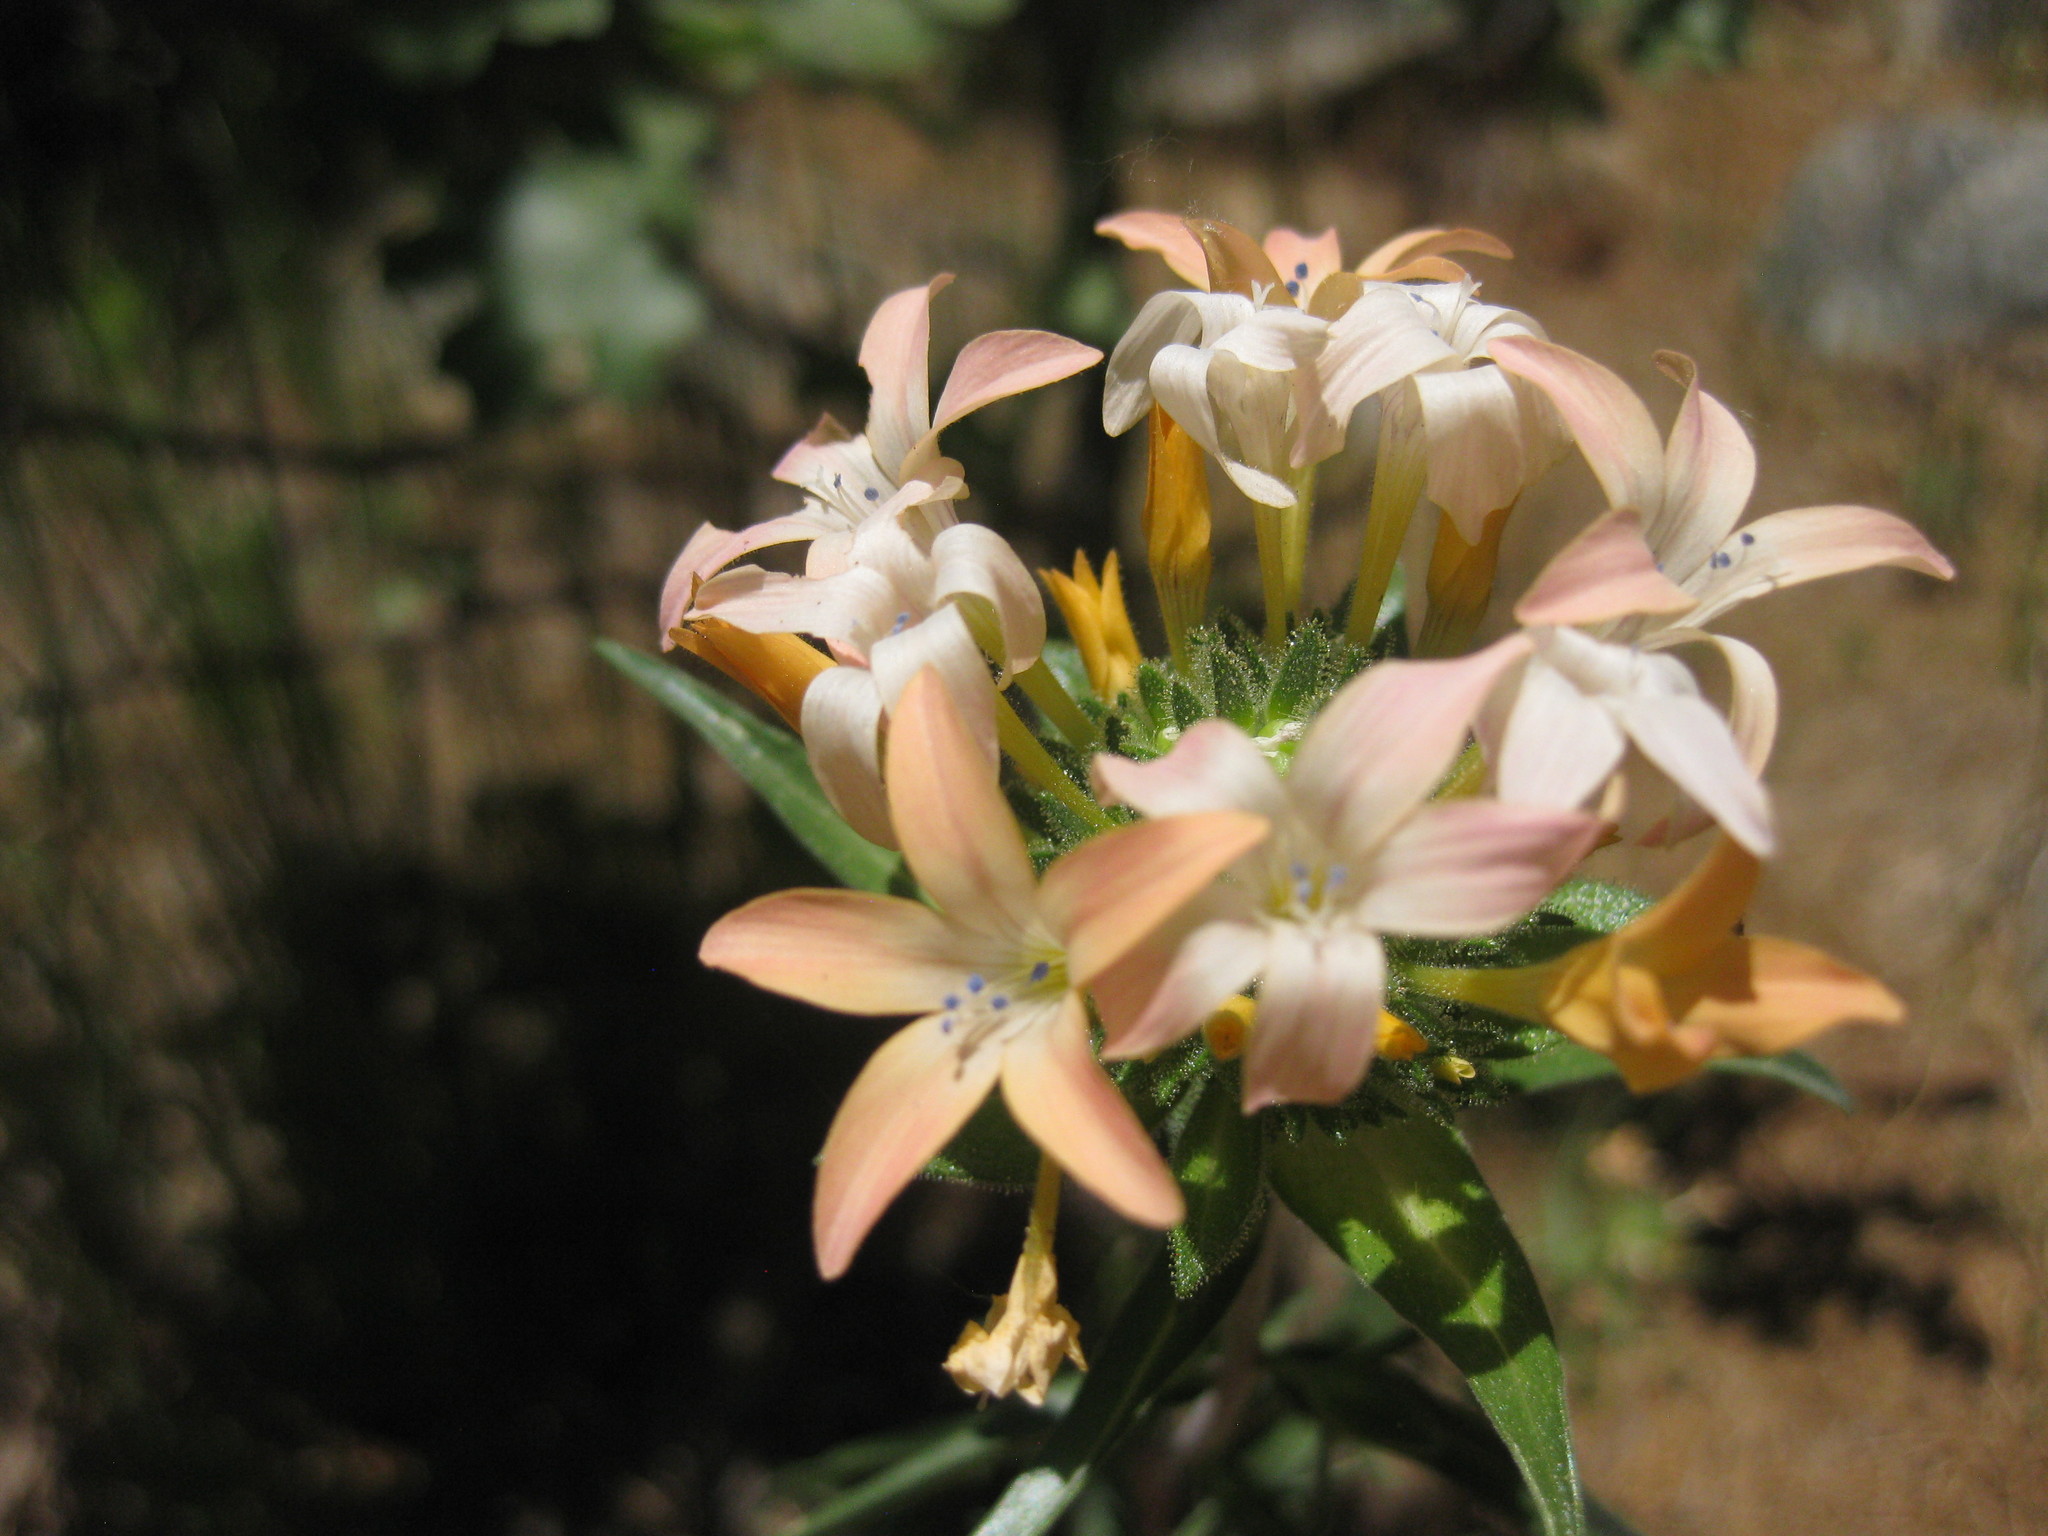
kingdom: Plantae
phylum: Tracheophyta
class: Magnoliopsida
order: Ericales
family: Polemoniaceae
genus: Collomia
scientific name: Collomia grandiflora
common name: California strawflower
